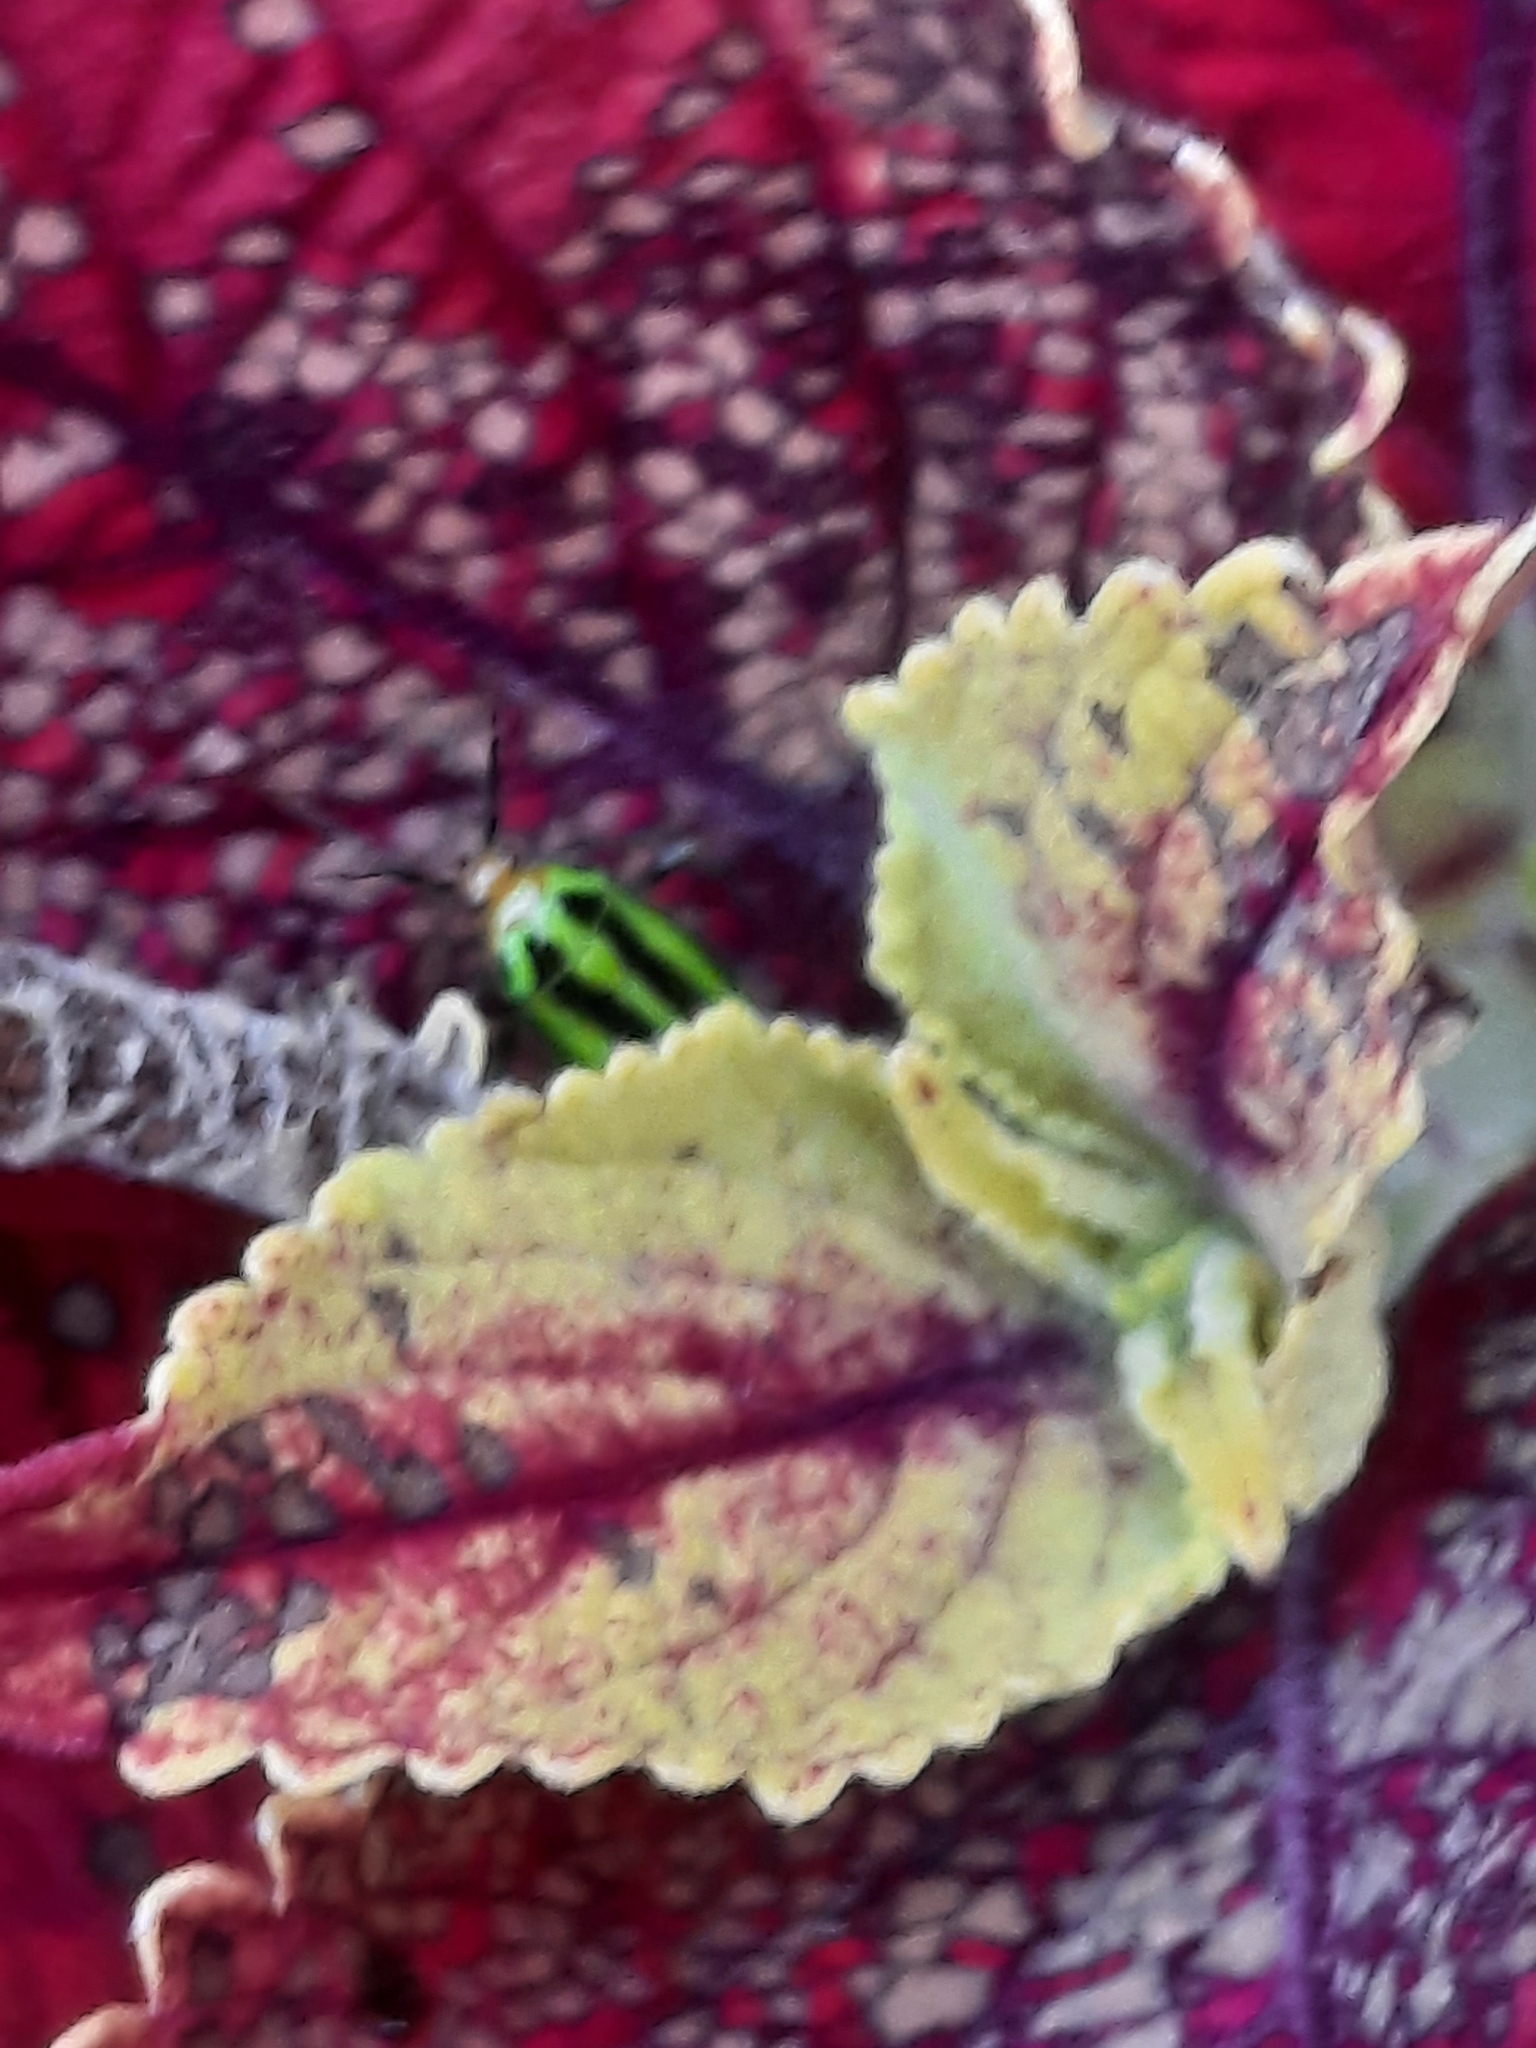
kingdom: Animalia
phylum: Arthropoda
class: Insecta
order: Hemiptera
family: Miridae
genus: Poecilocapsus
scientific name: Poecilocapsus lineatus
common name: Four-lined plant bug
